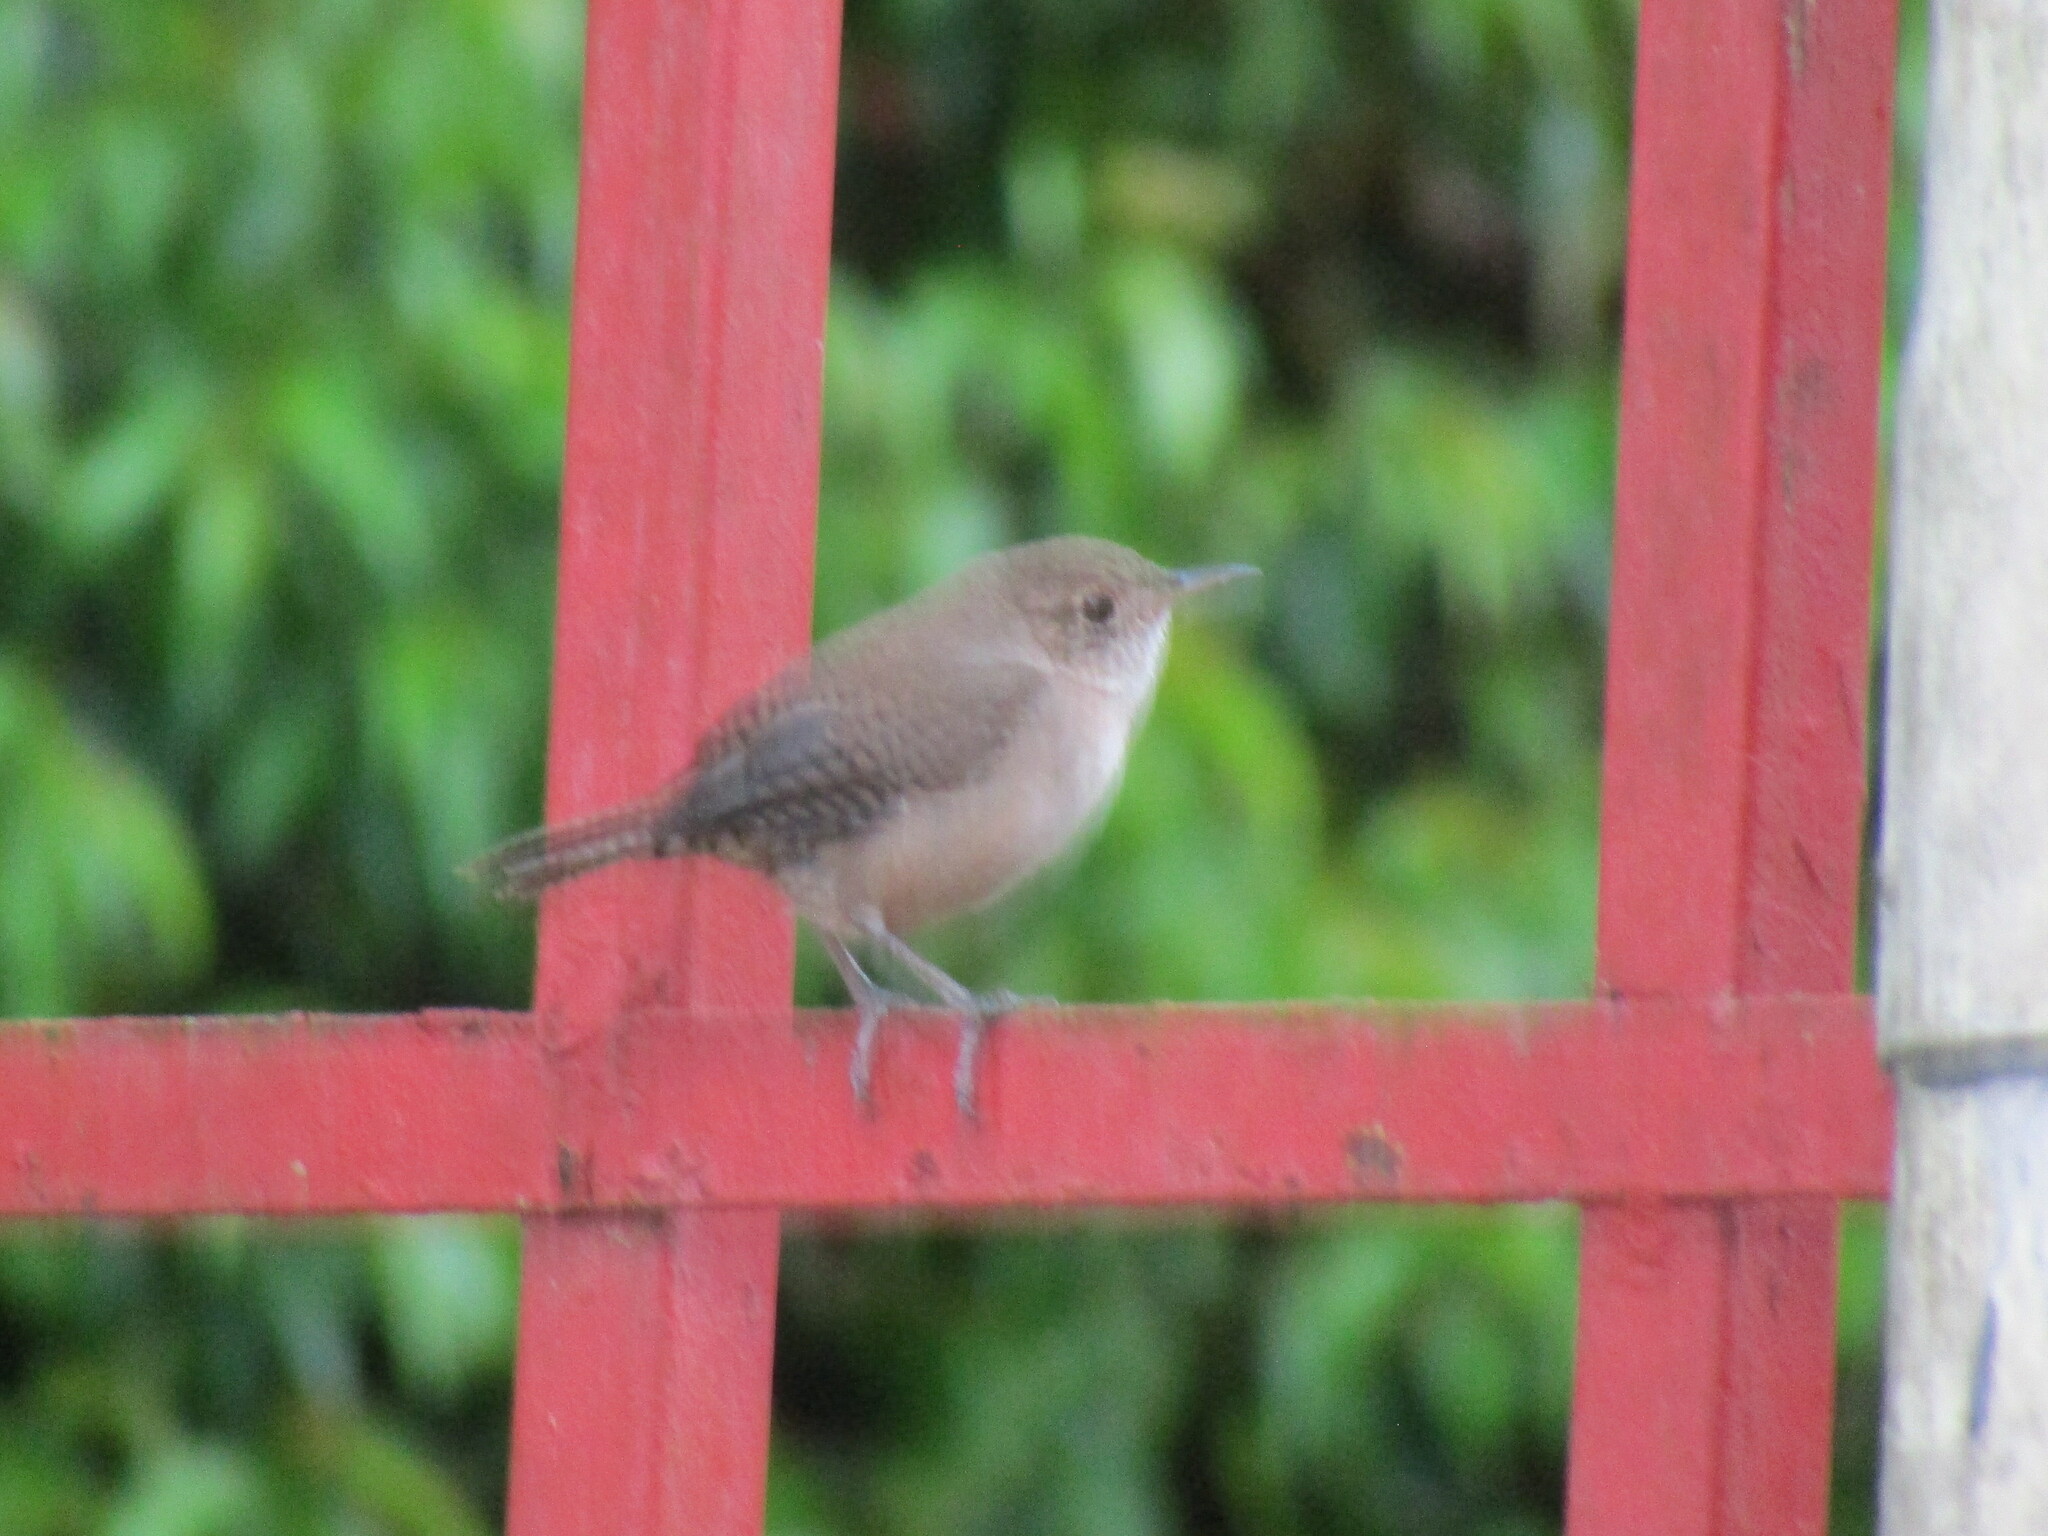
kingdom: Animalia
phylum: Chordata
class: Aves
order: Passeriformes
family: Troglodytidae
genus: Troglodytes
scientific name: Troglodytes aedon
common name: House wren
